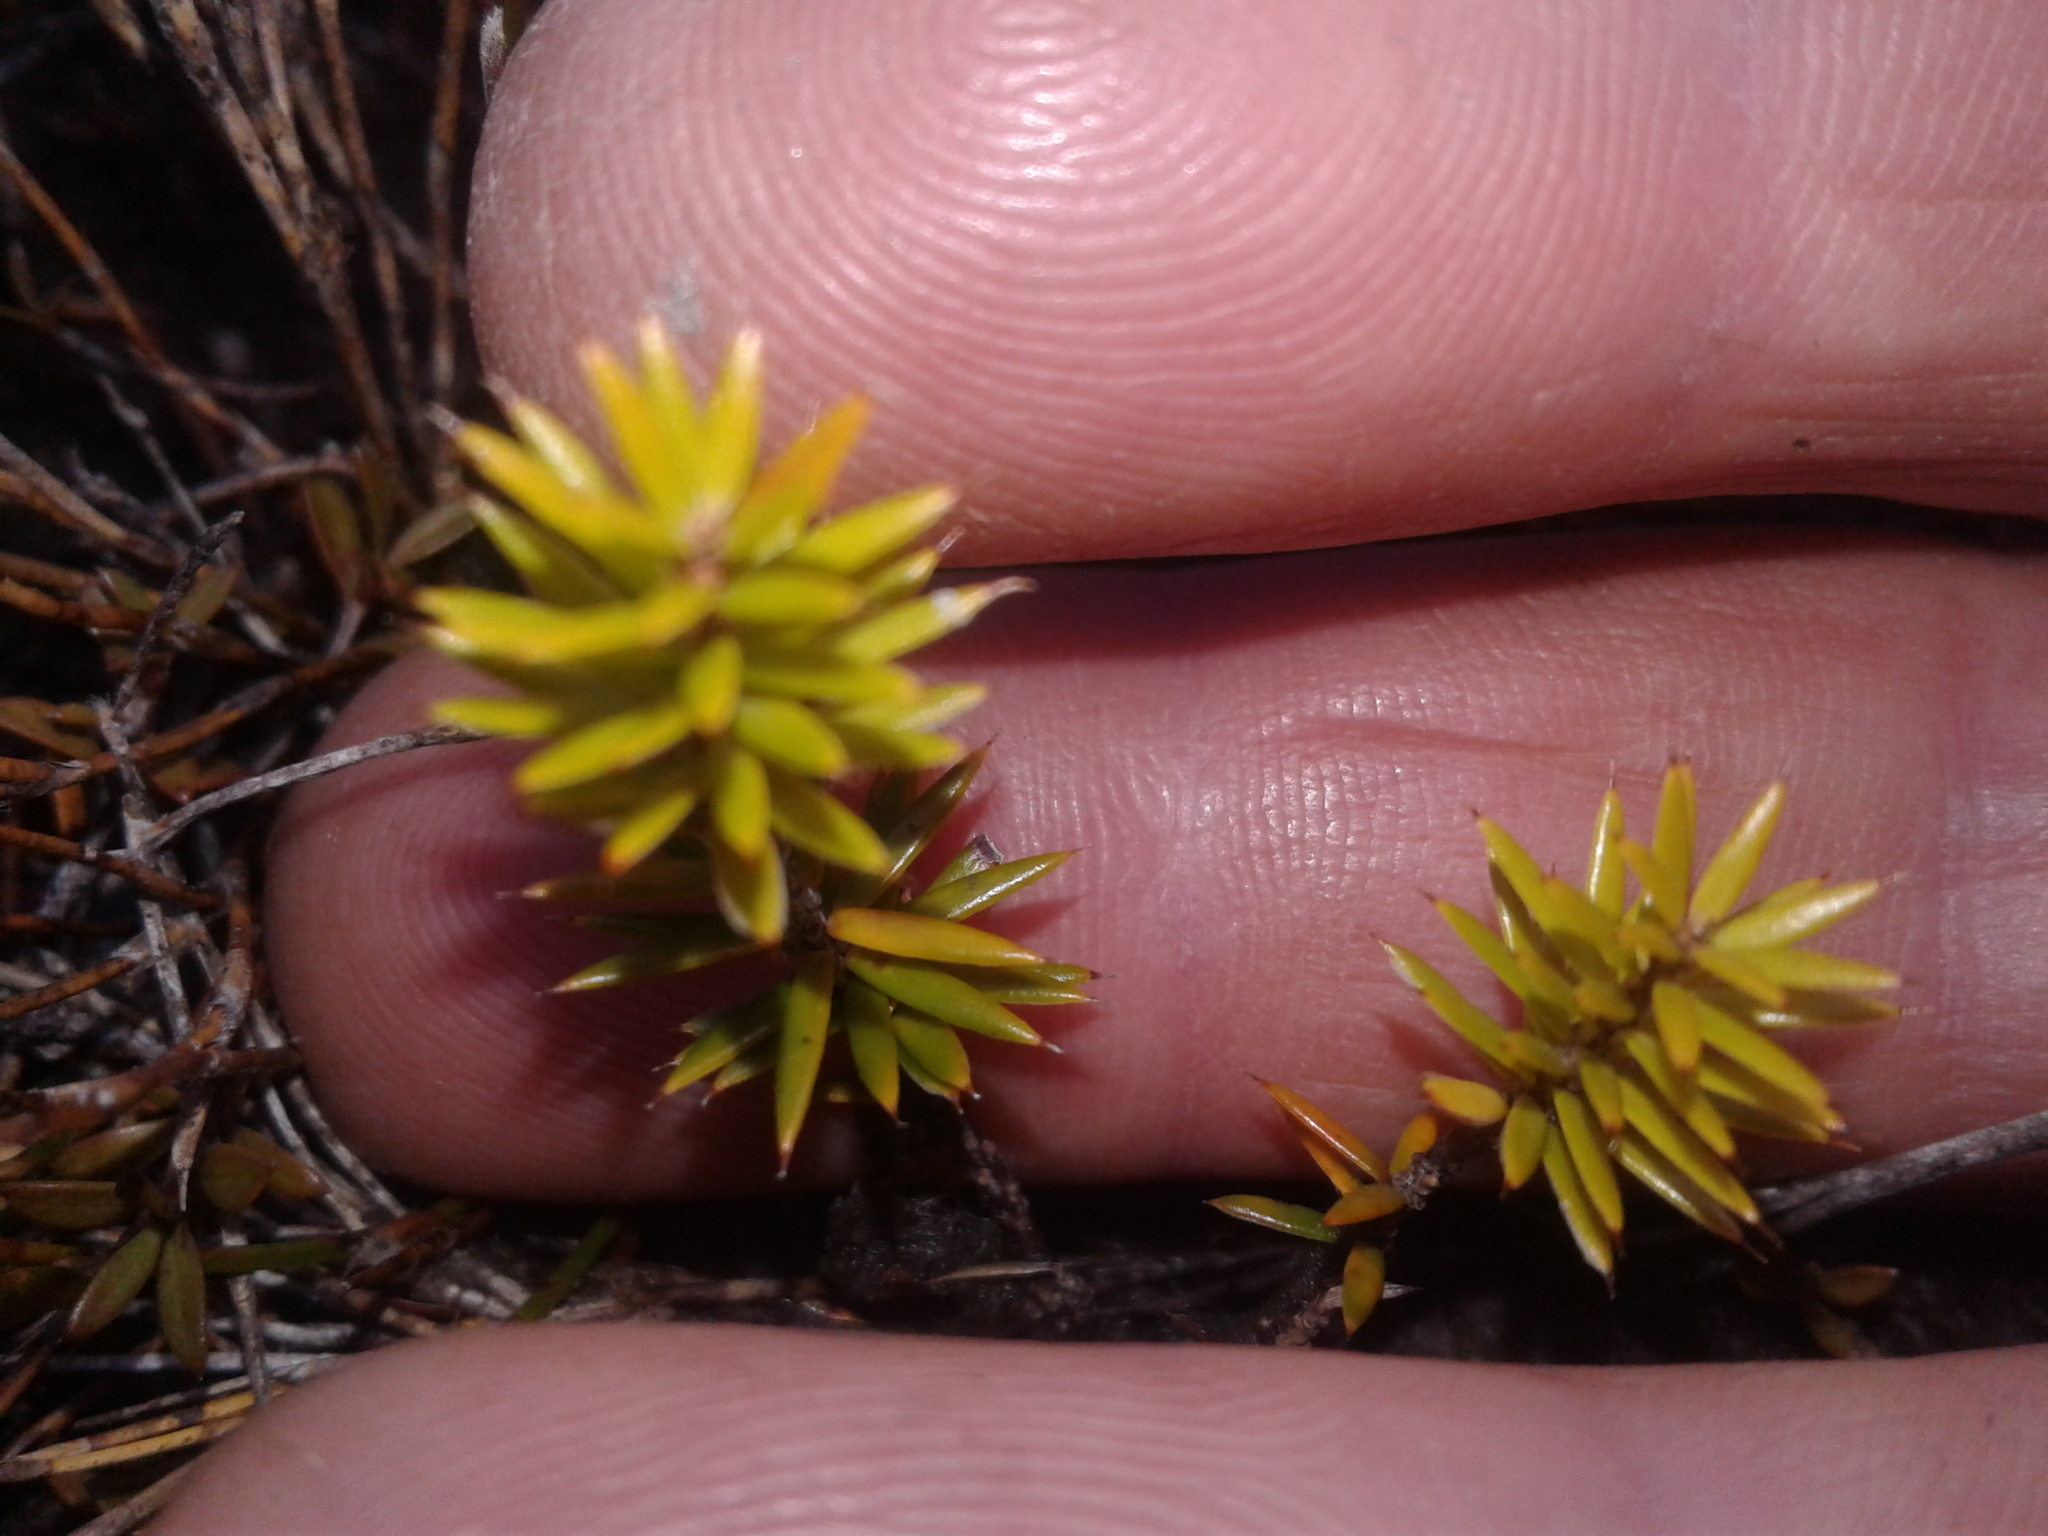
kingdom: Plantae
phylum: Tracheophyta
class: Magnoliopsida
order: Ericales
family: Ericaceae
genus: Archeria
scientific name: Archeria traversii
